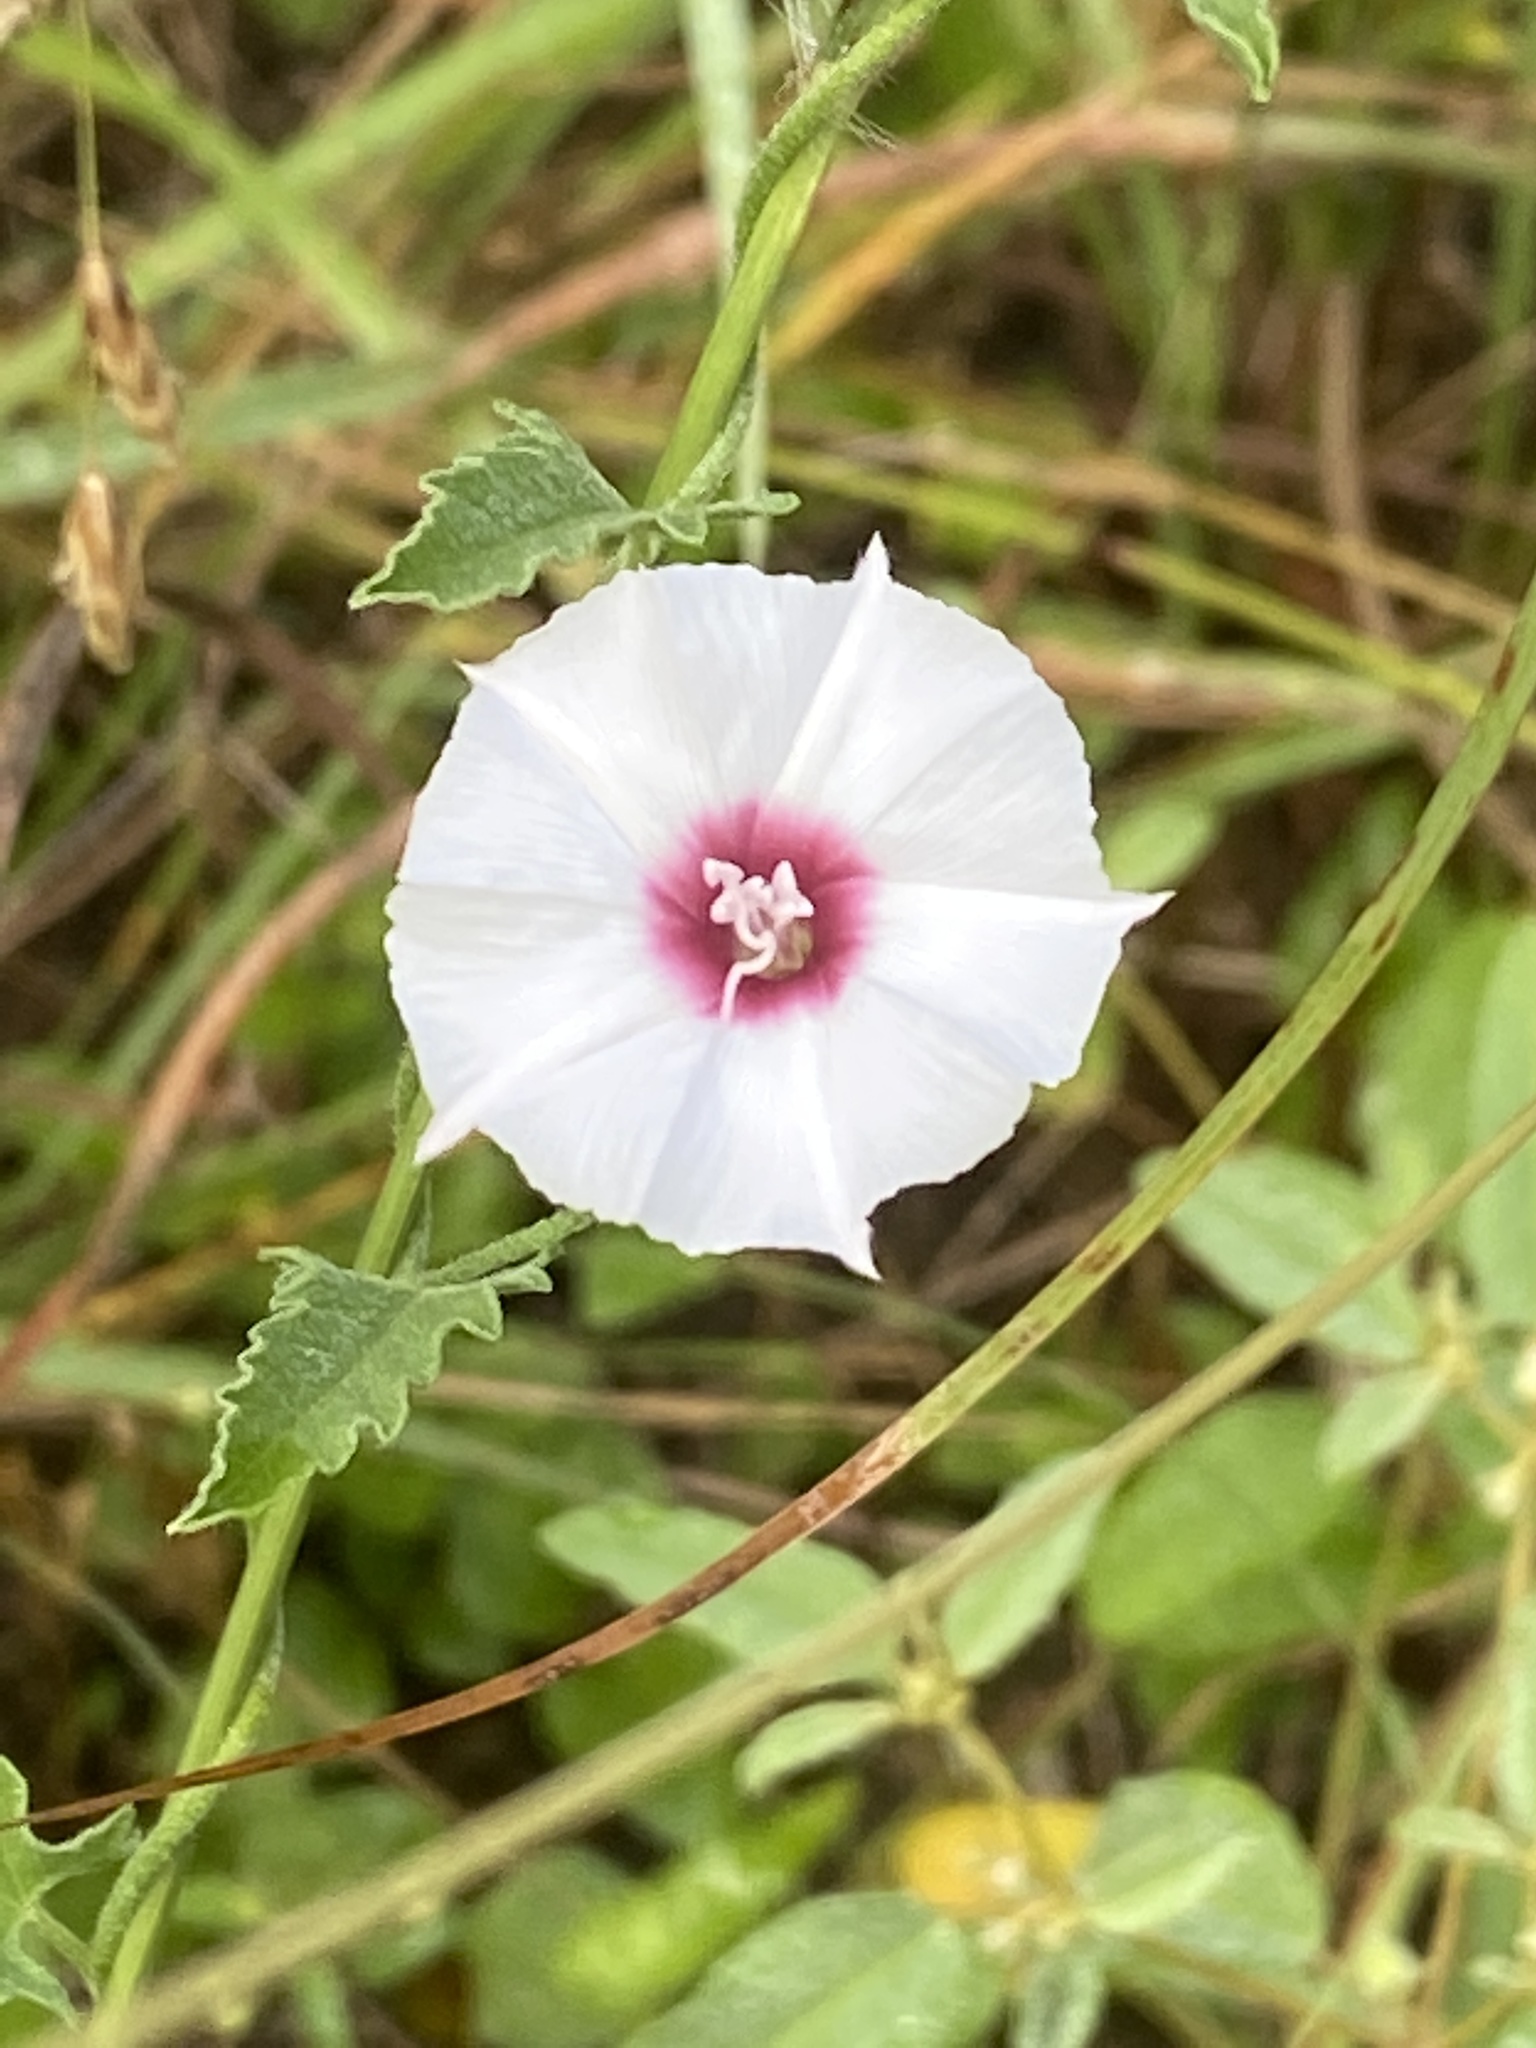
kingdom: Plantae
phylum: Tracheophyta
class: Magnoliopsida
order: Solanales
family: Convolvulaceae
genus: Convolvulus
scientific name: Convolvulus equitans
